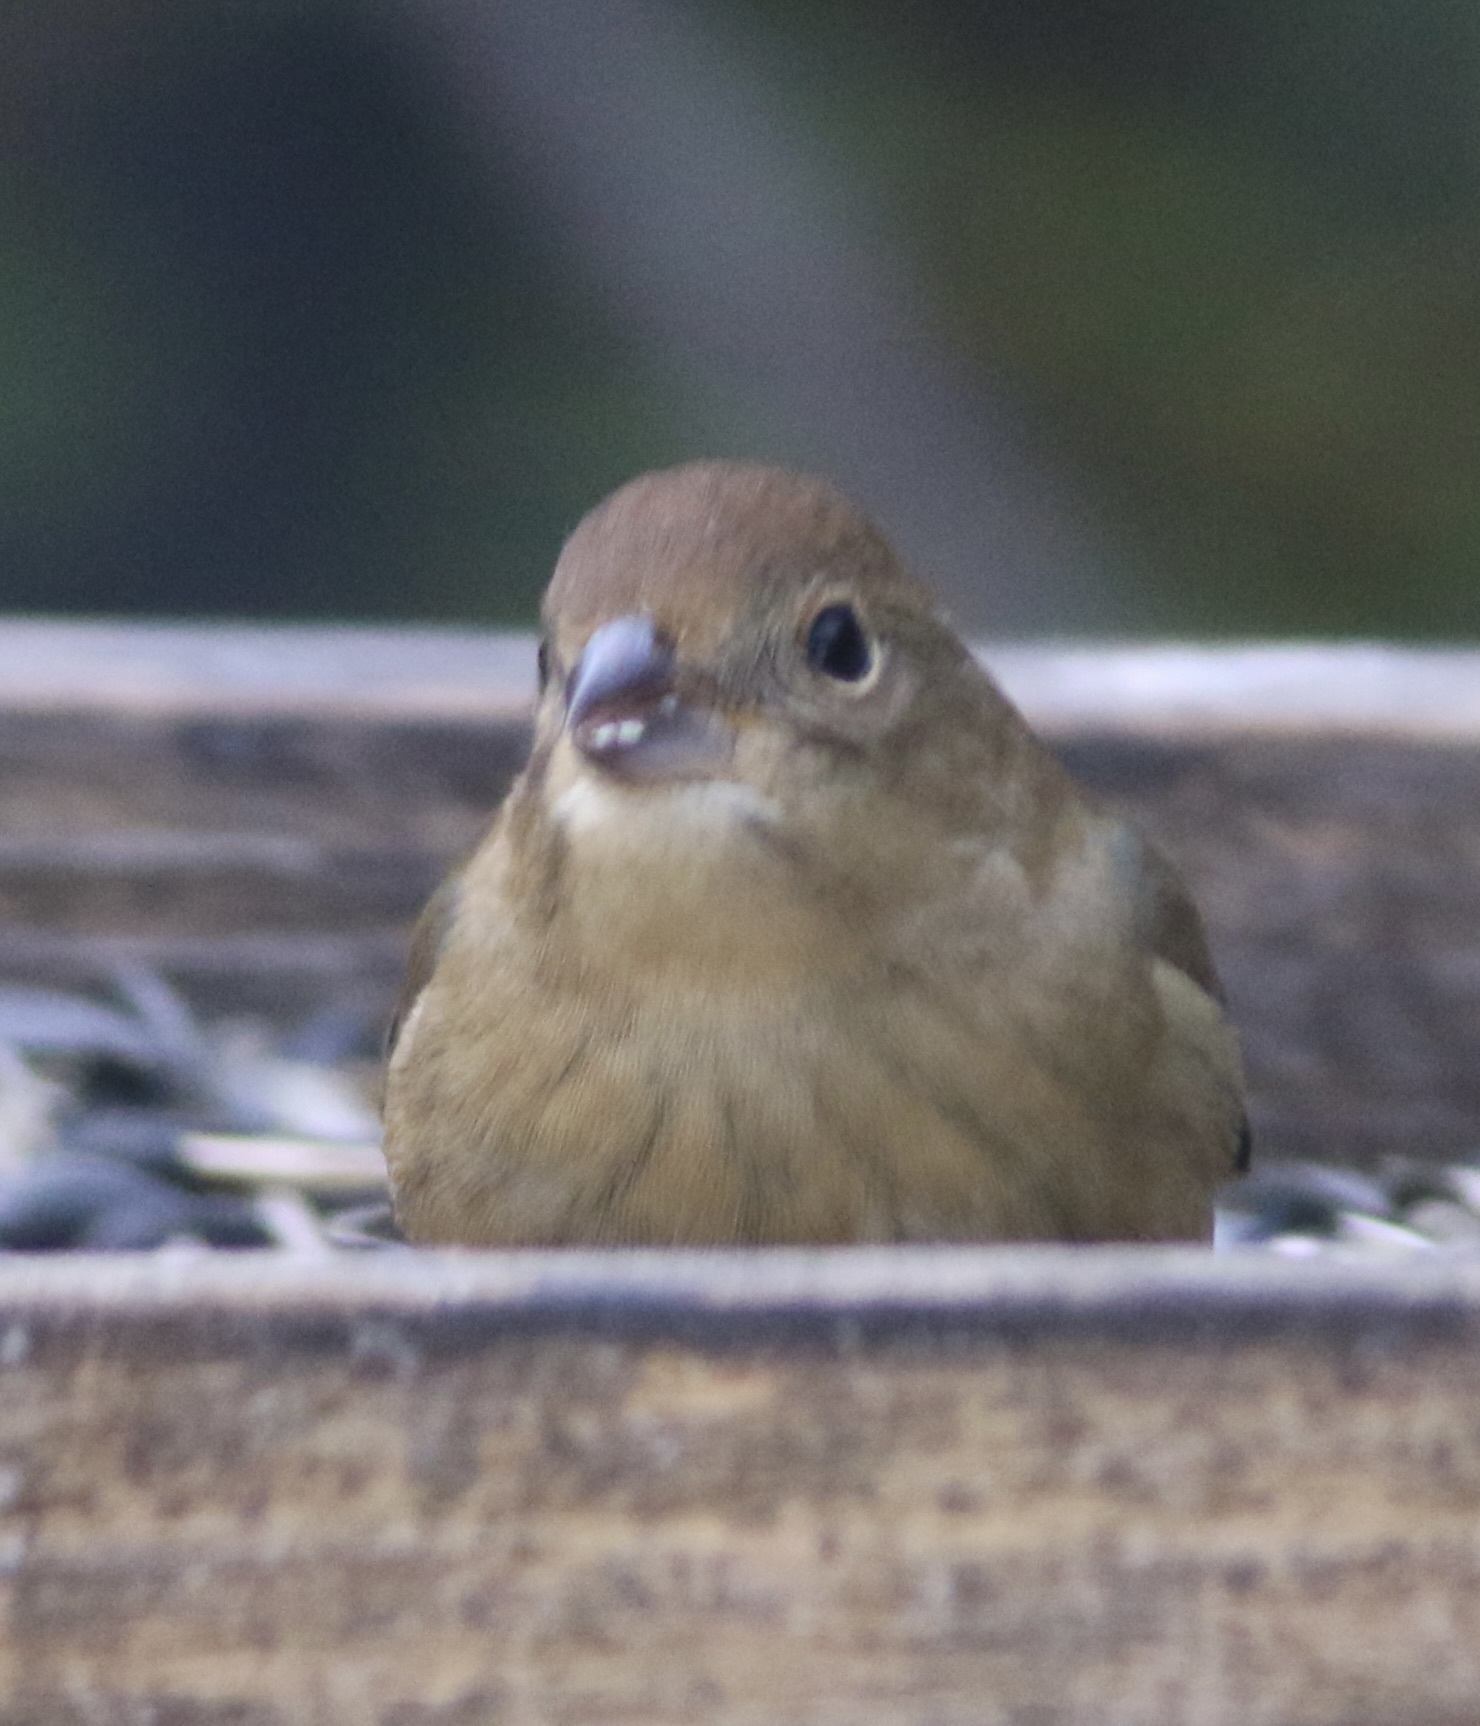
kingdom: Animalia
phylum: Chordata
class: Aves
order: Passeriformes
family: Cardinalidae
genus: Passerina
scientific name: Passerina cyanea
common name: Indigo bunting
